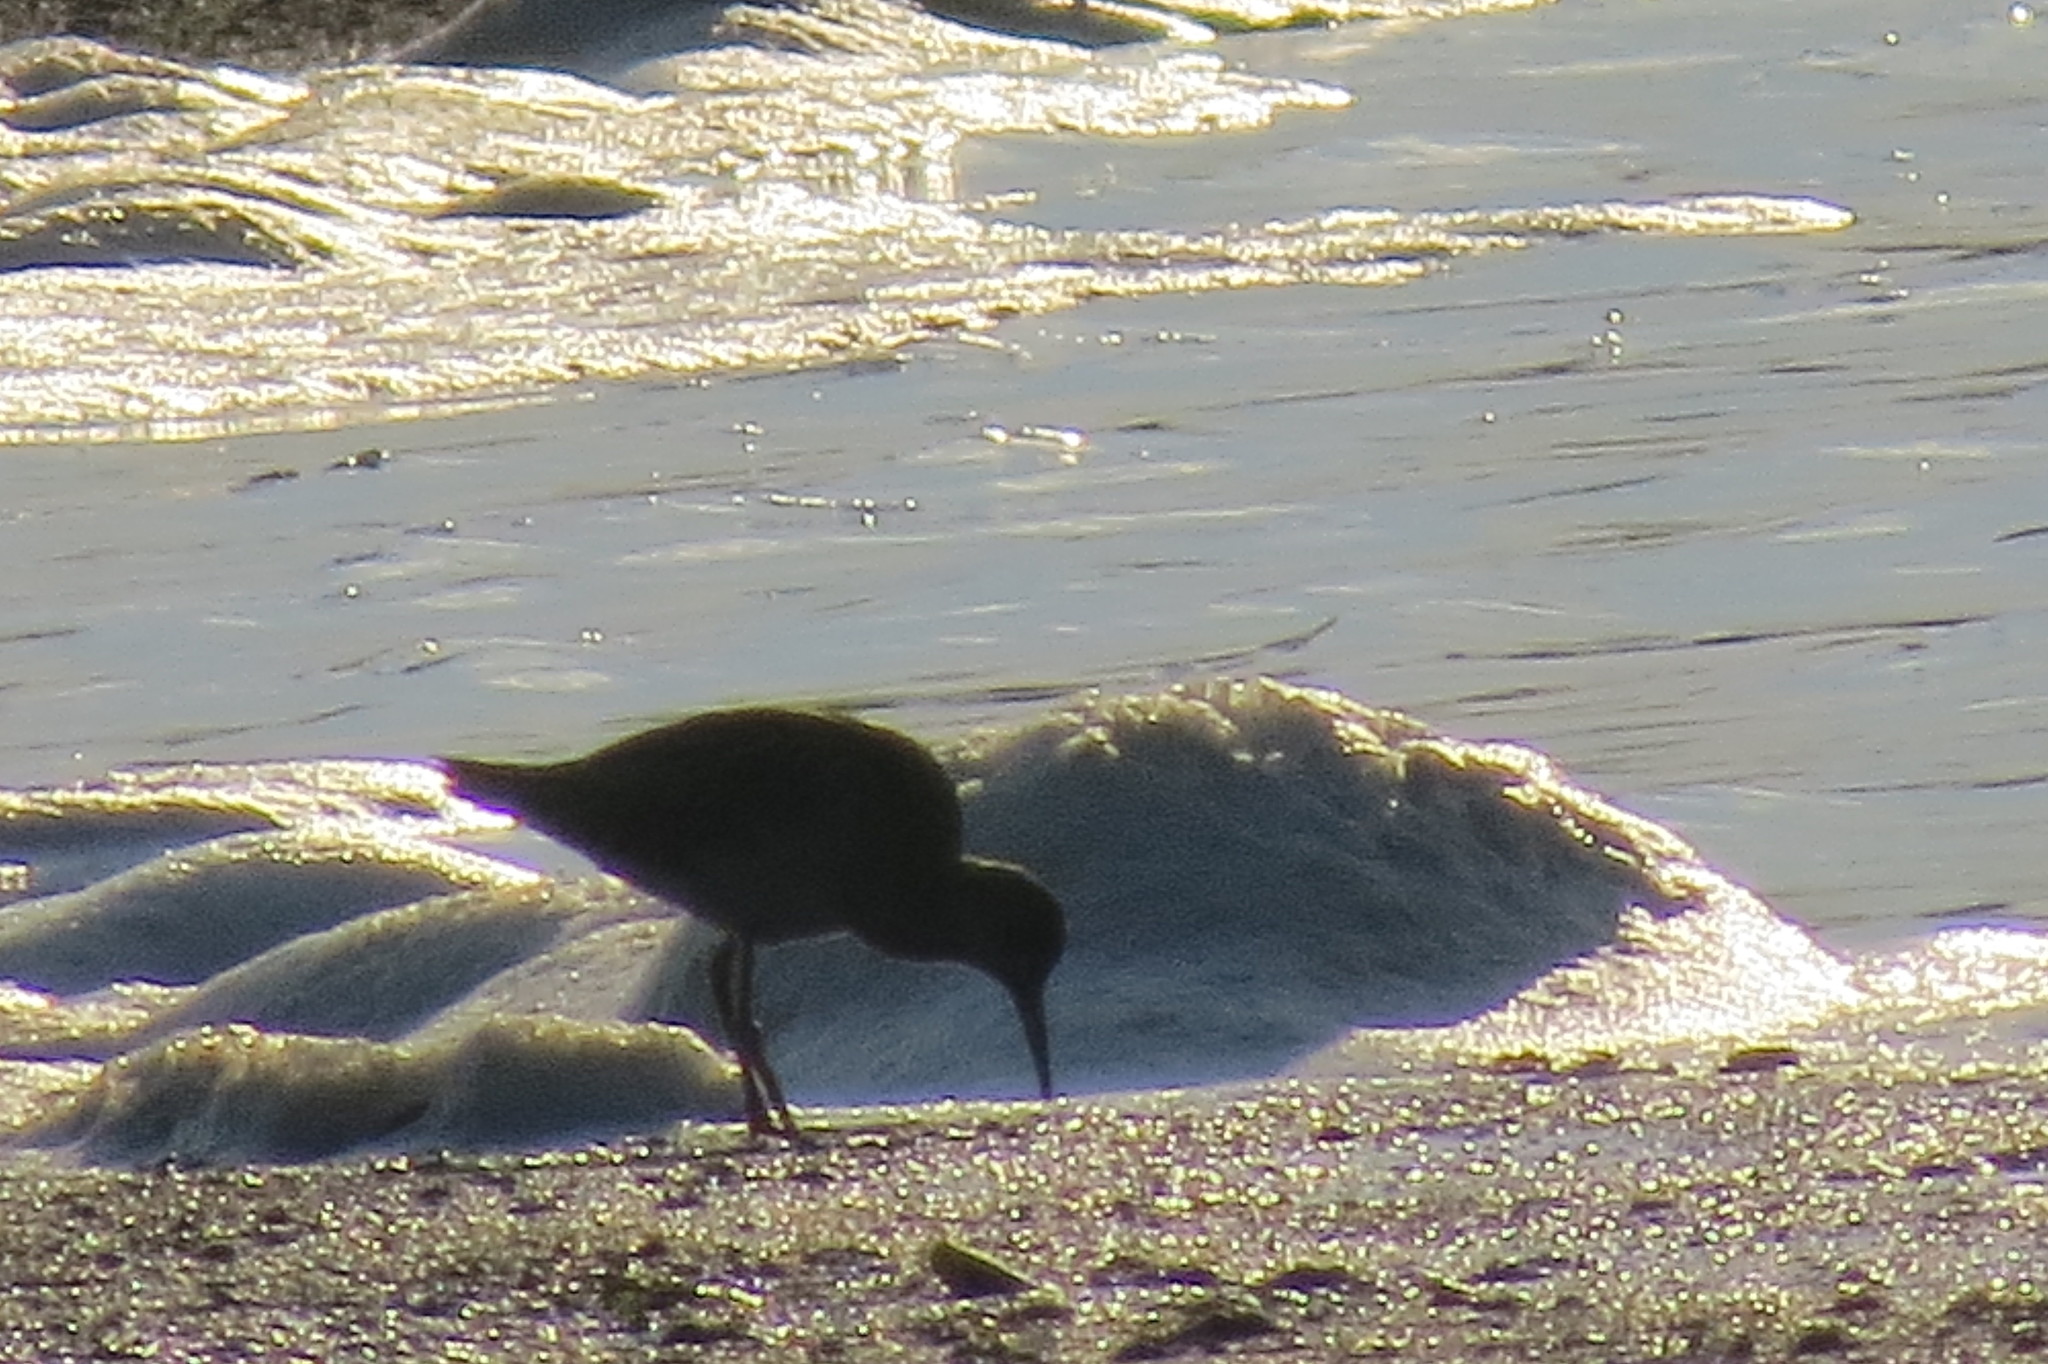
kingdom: Animalia
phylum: Chordata
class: Aves
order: Charadriiformes
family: Scolopacidae
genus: Calidris
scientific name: Calidris pugnax
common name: Ruff
